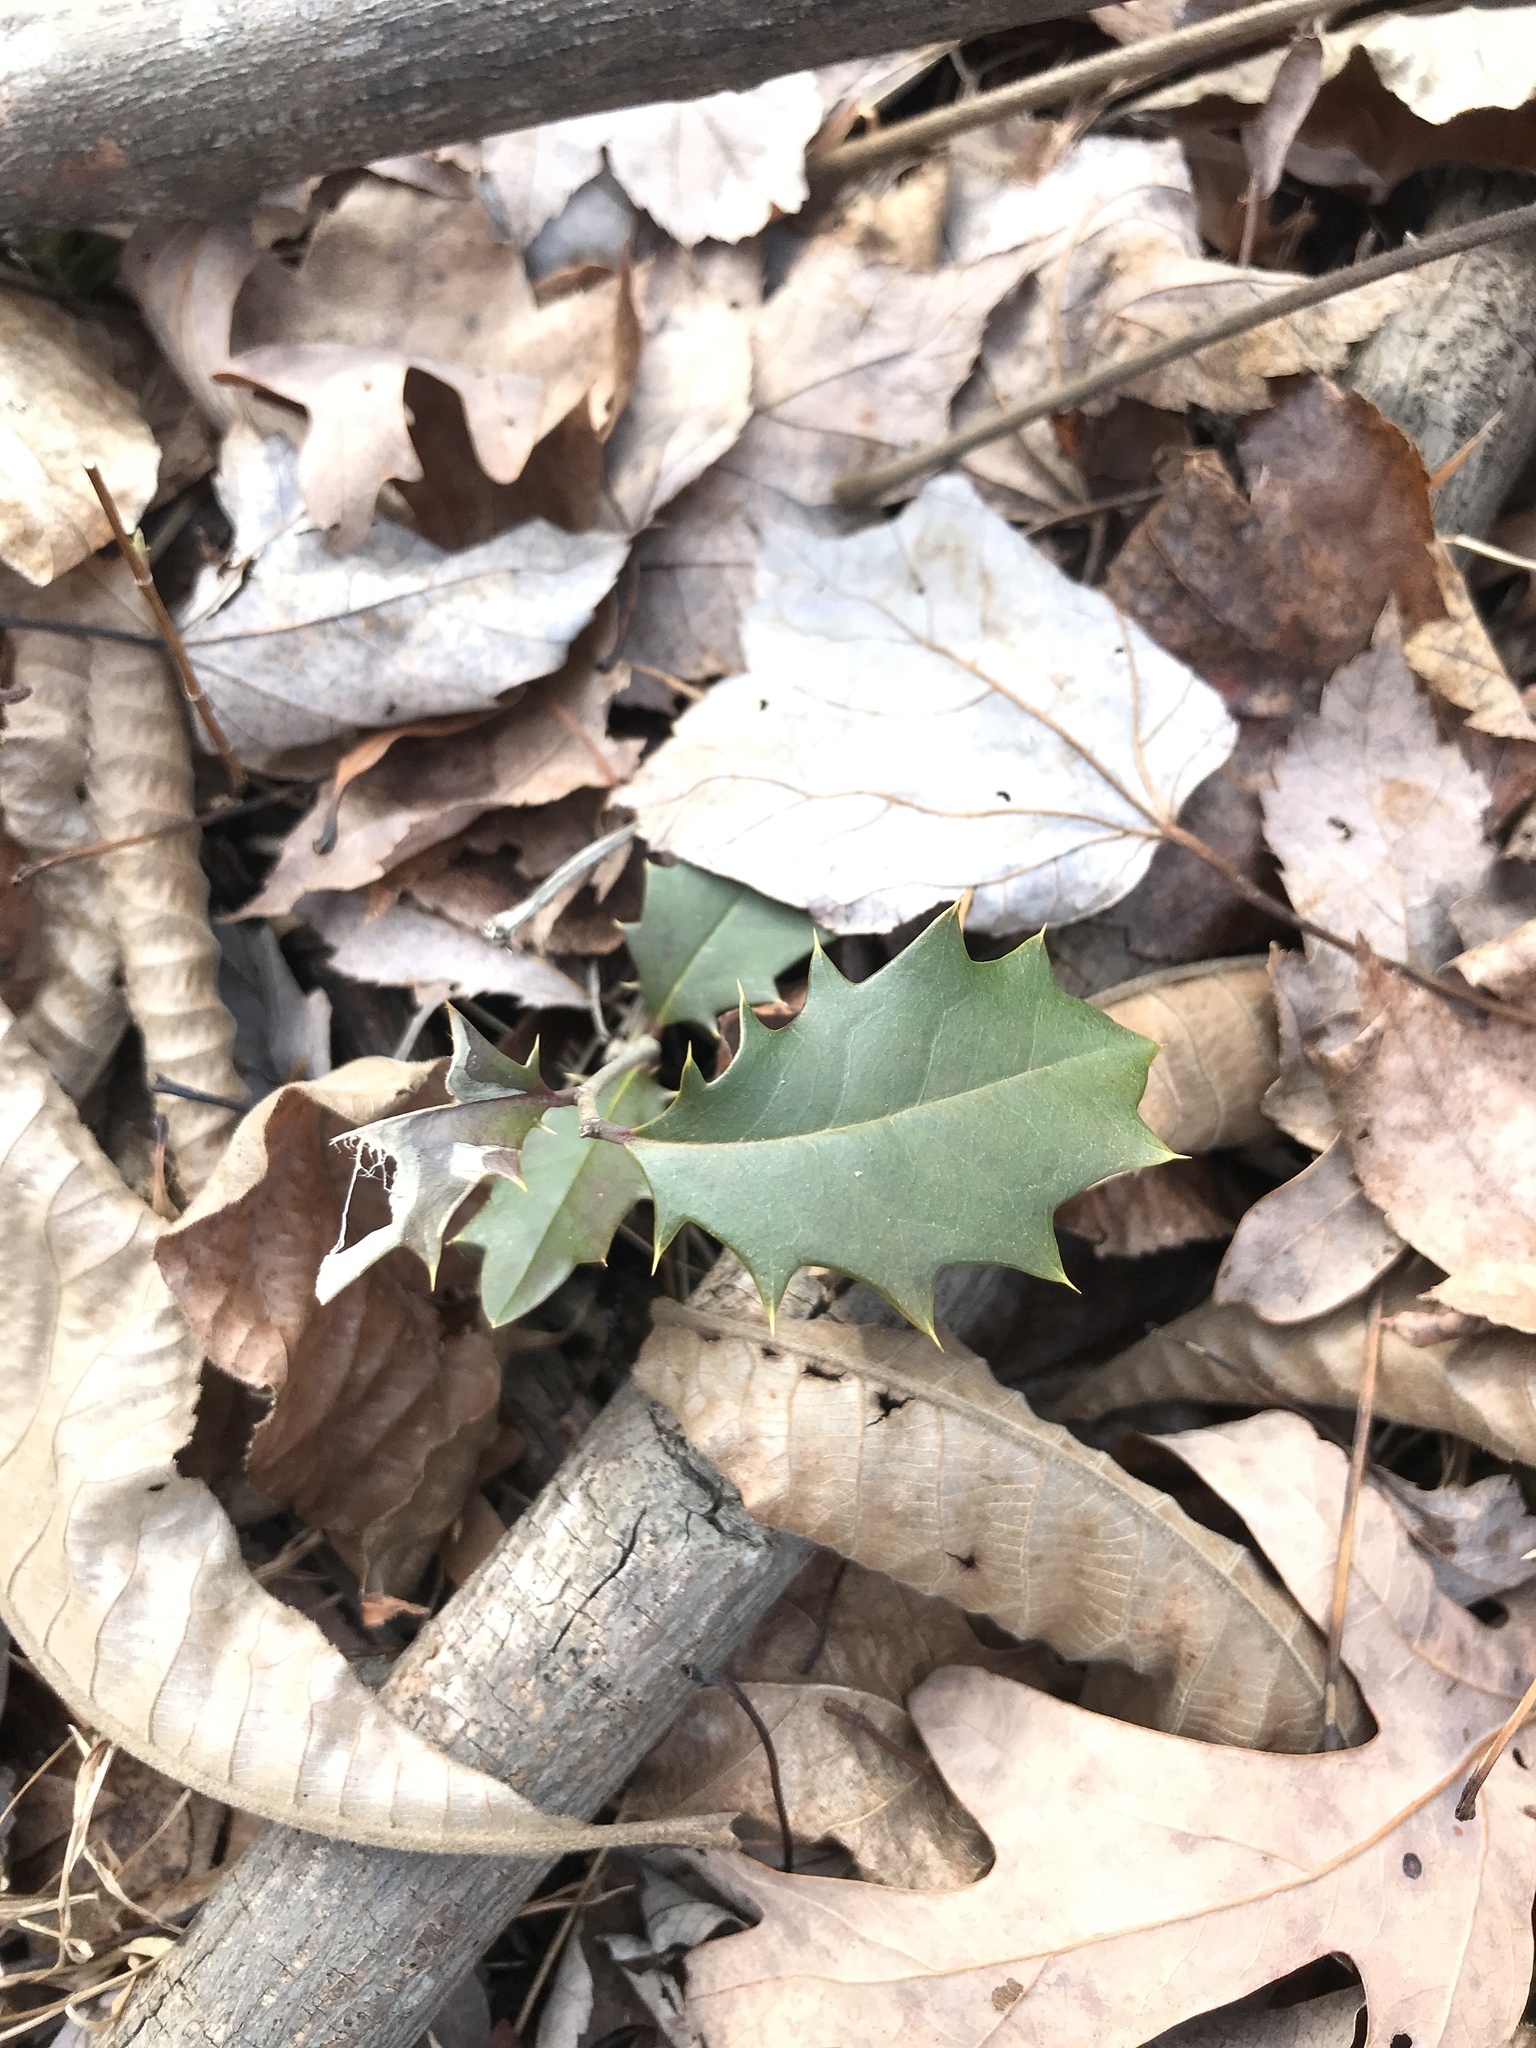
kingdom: Plantae
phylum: Tracheophyta
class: Magnoliopsida
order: Aquifoliales
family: Aquifoliaceae
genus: Ilex
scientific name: Ilex opaca
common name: American holly
